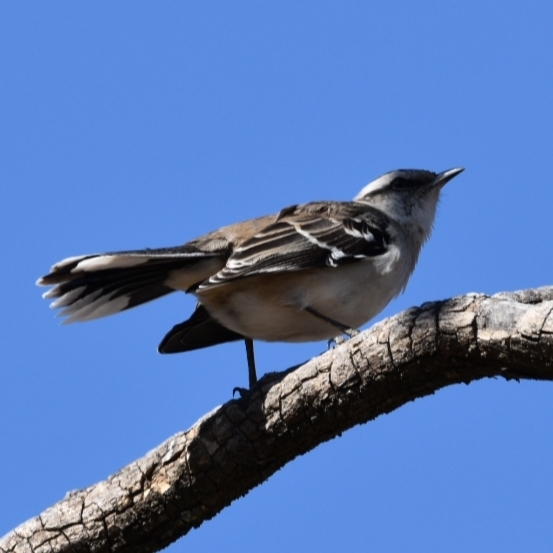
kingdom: Animalia
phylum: Chordata
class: Aves
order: Passeriformes
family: Mimidae
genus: Mimus
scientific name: Mimus saturninus
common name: Chalk-browed mockingbird
